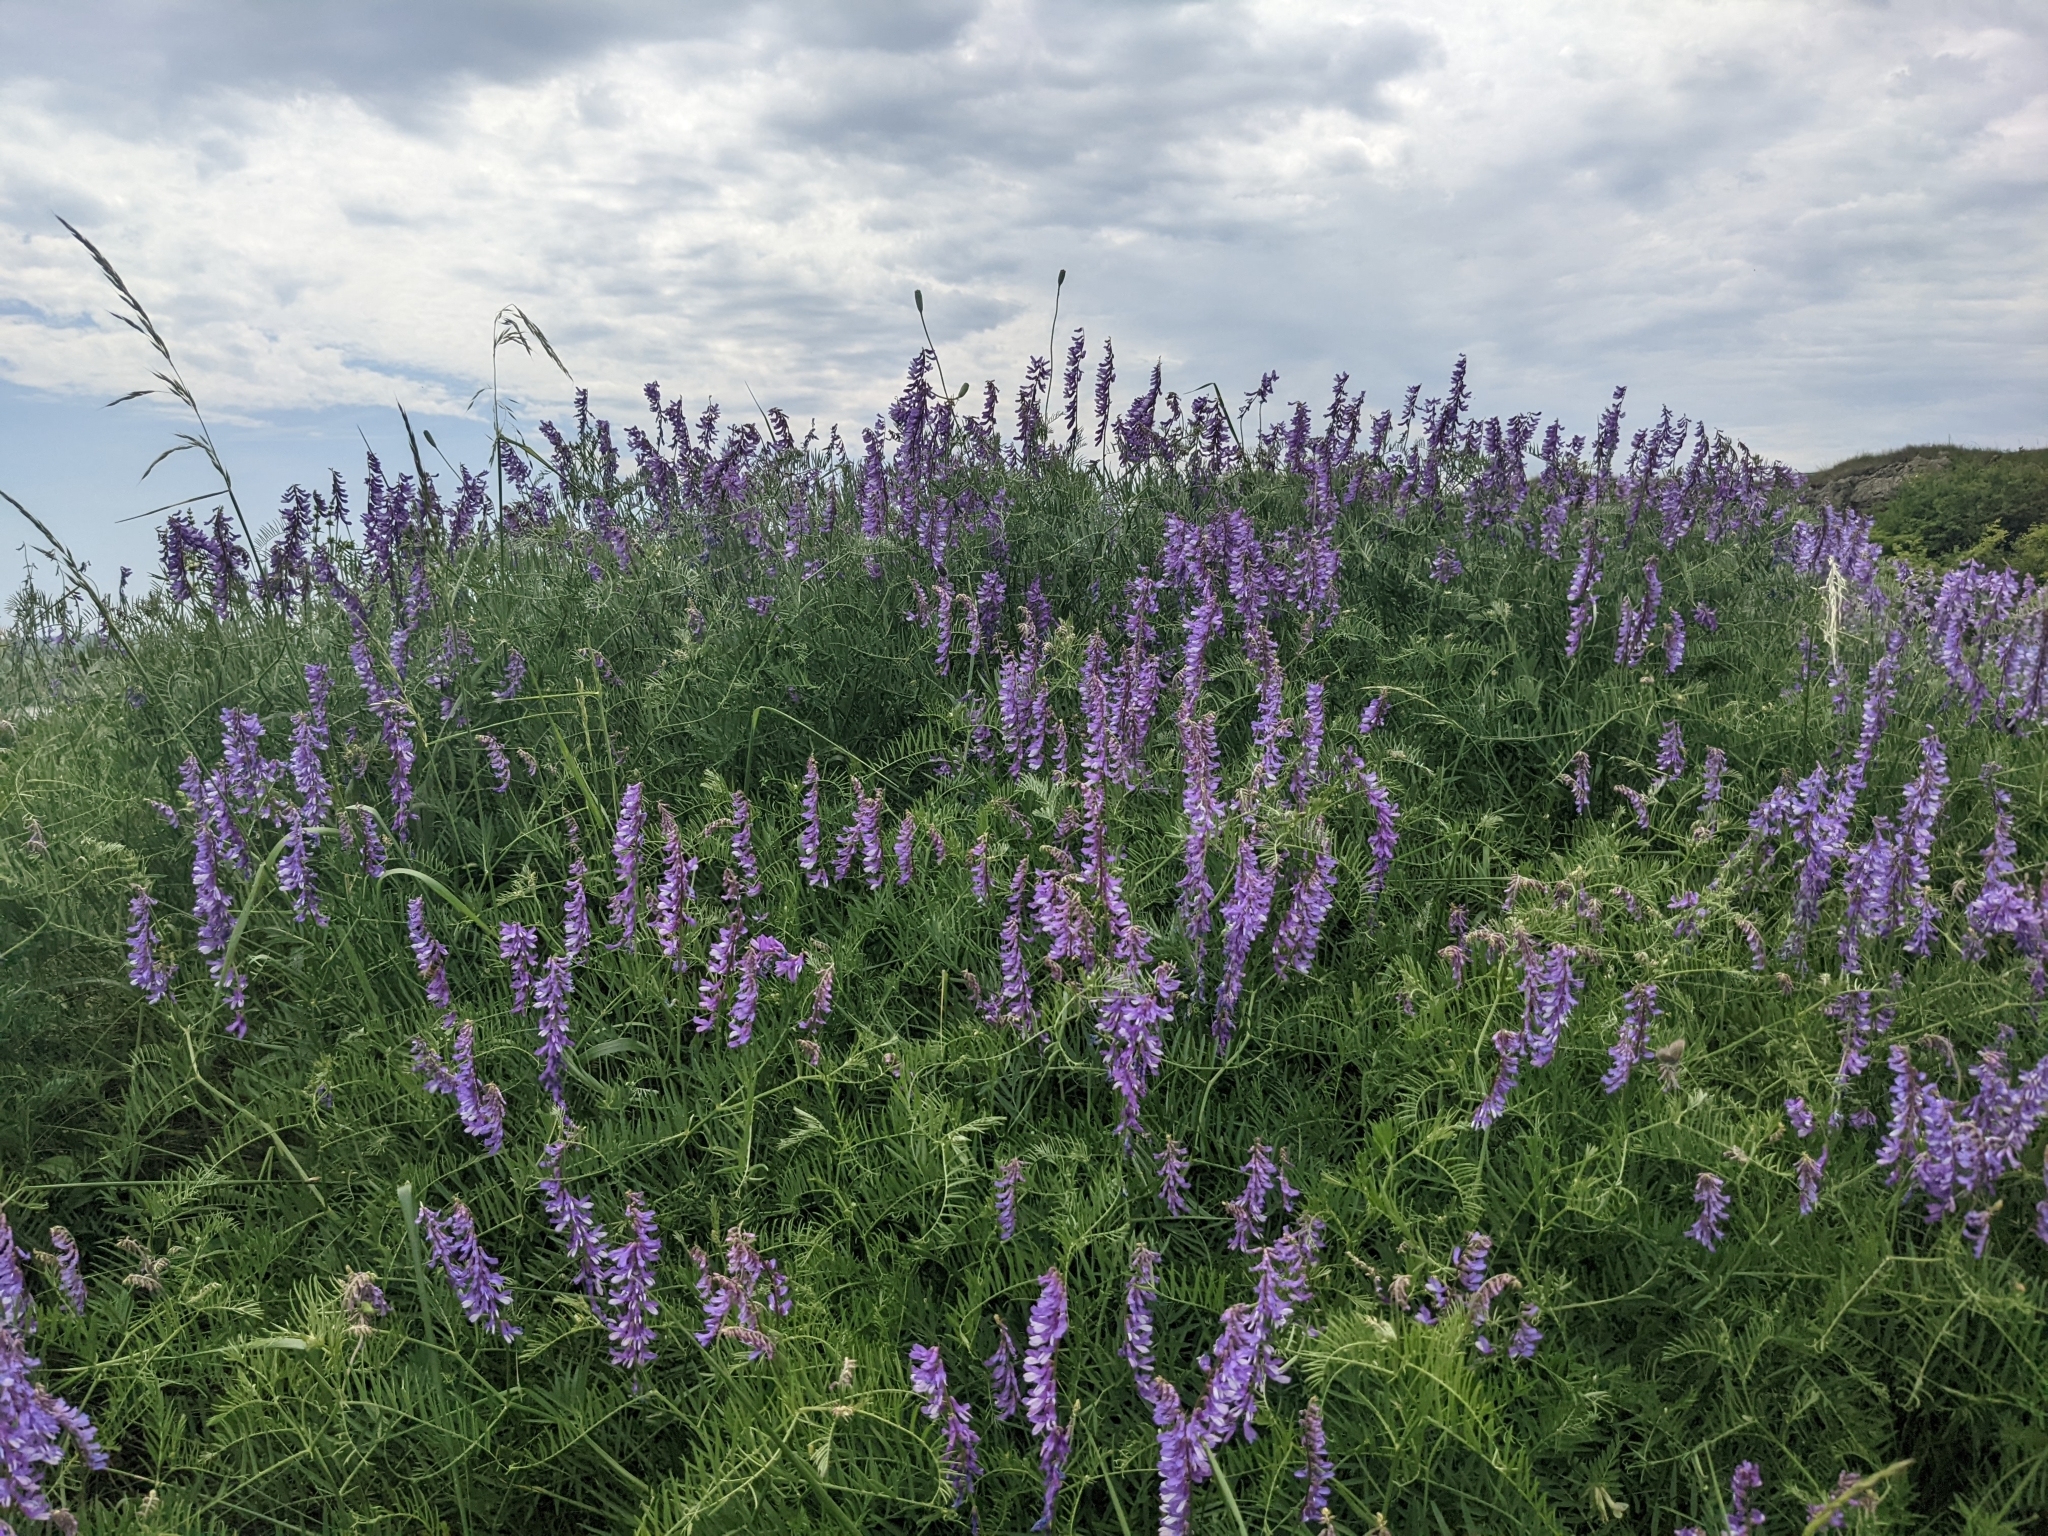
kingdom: Plantae
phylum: Tracheophyta
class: Magnoliopsida
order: Fabales
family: Fabaceae
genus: Vicia
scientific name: Vicia tenuifolia
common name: Fine-leaved vetch
